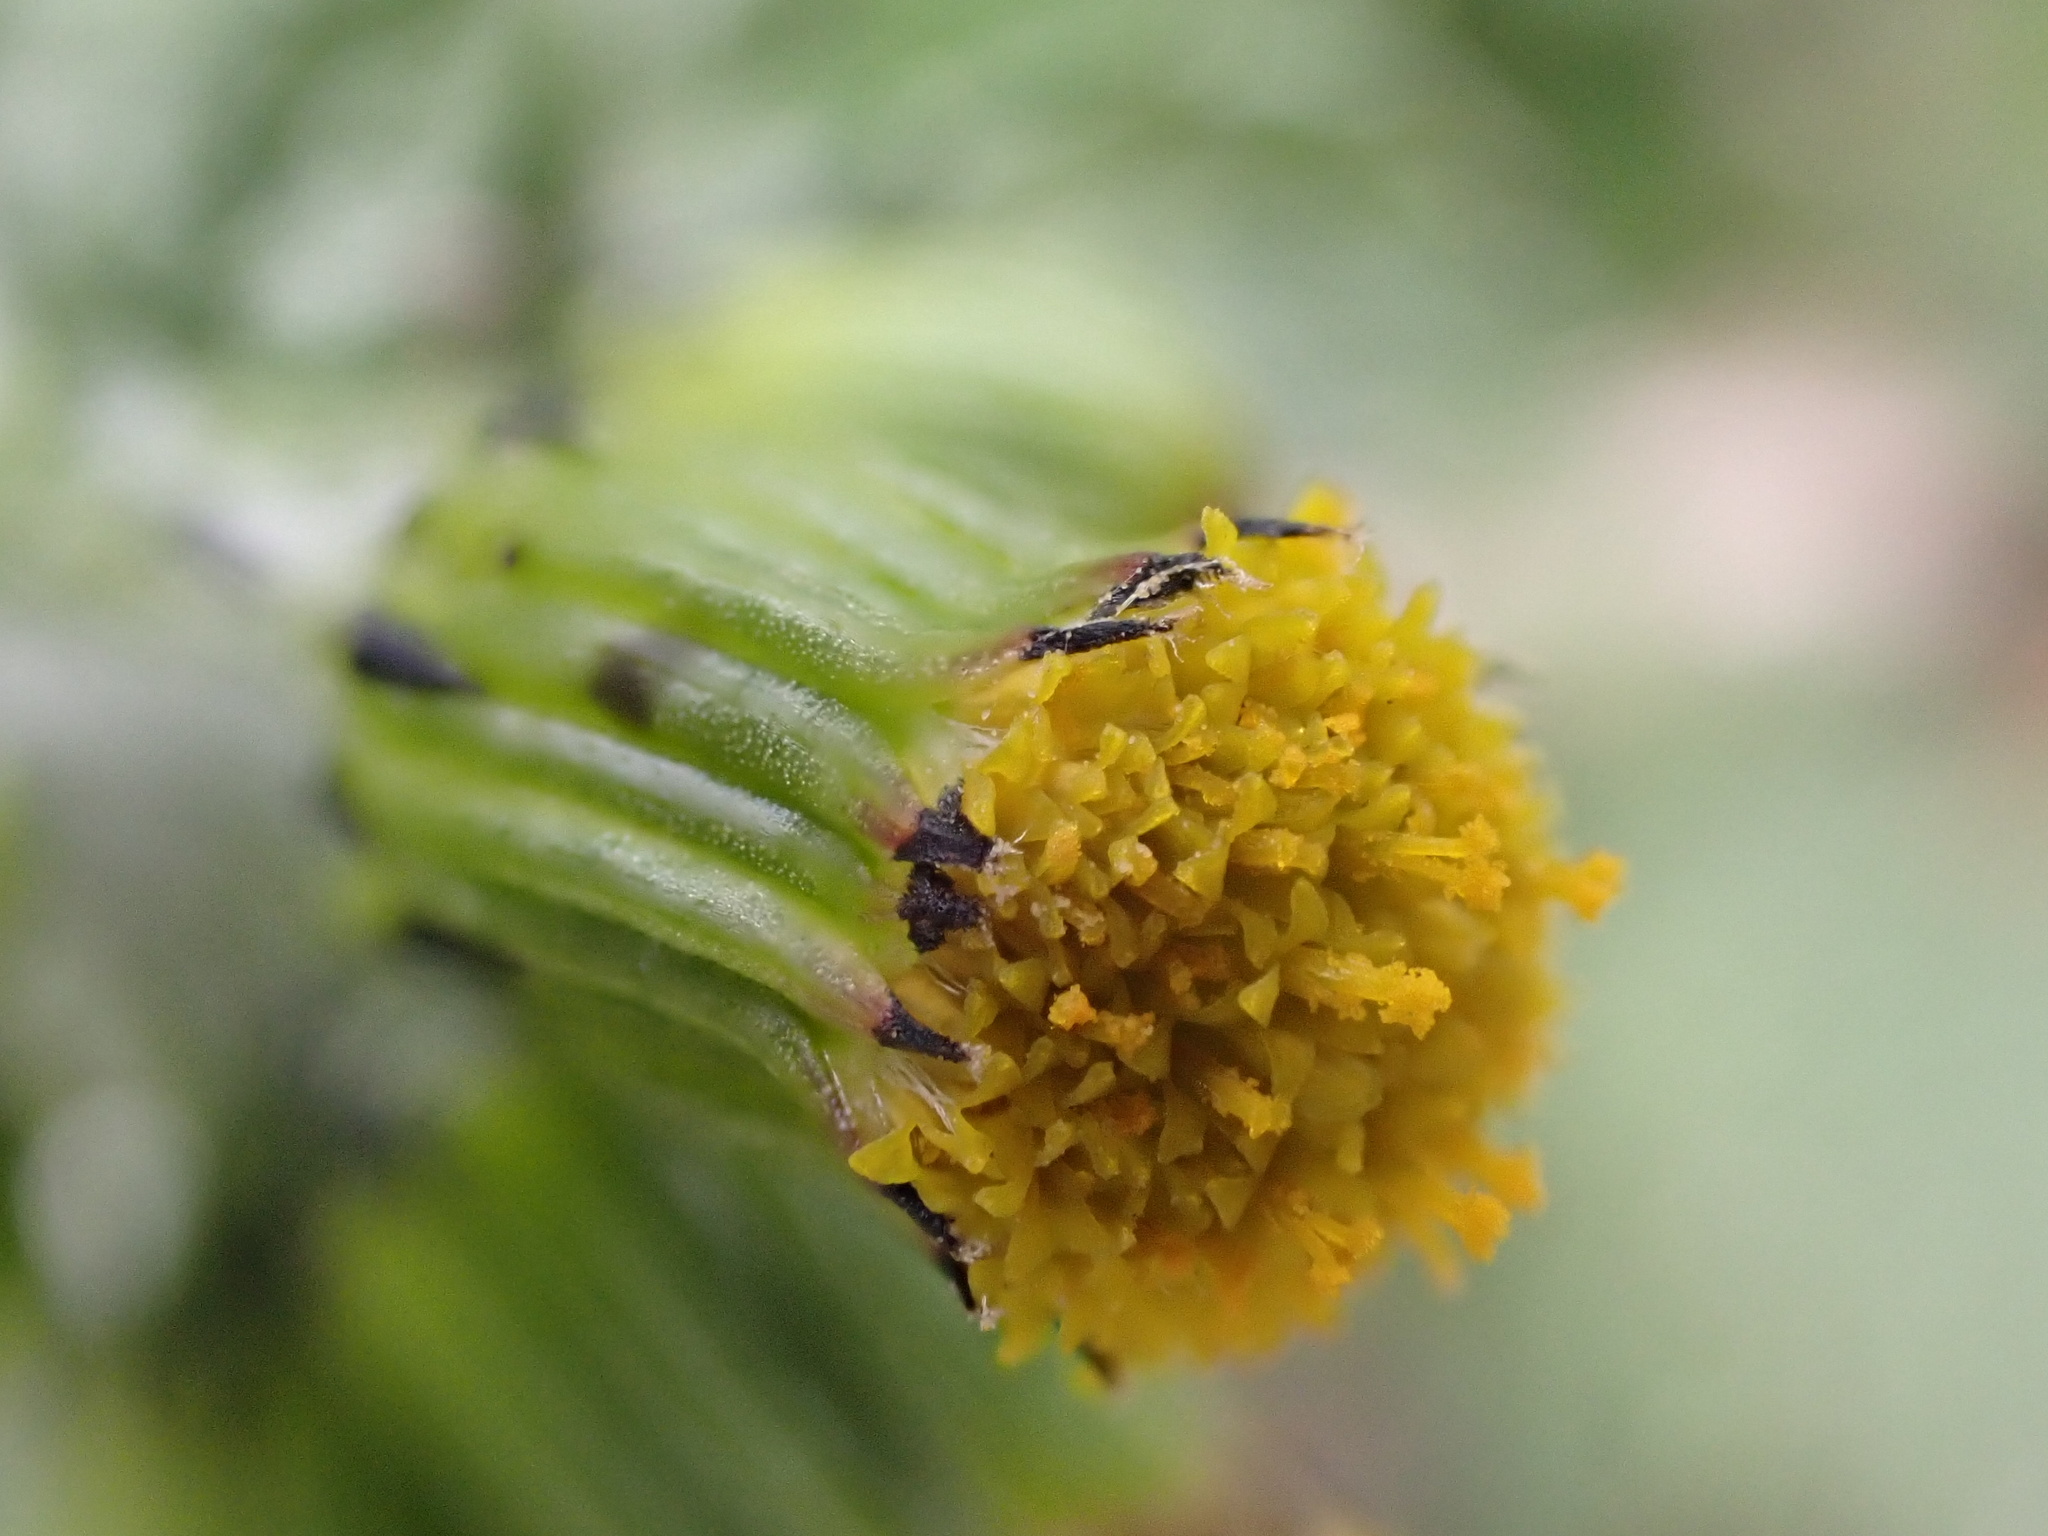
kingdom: Plantae
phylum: Tracheophyta
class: Magnoliopsida
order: Asterales
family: Asteraceae
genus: Senecio
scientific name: Senecio vulgaris
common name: Old-man-in-the-spring
